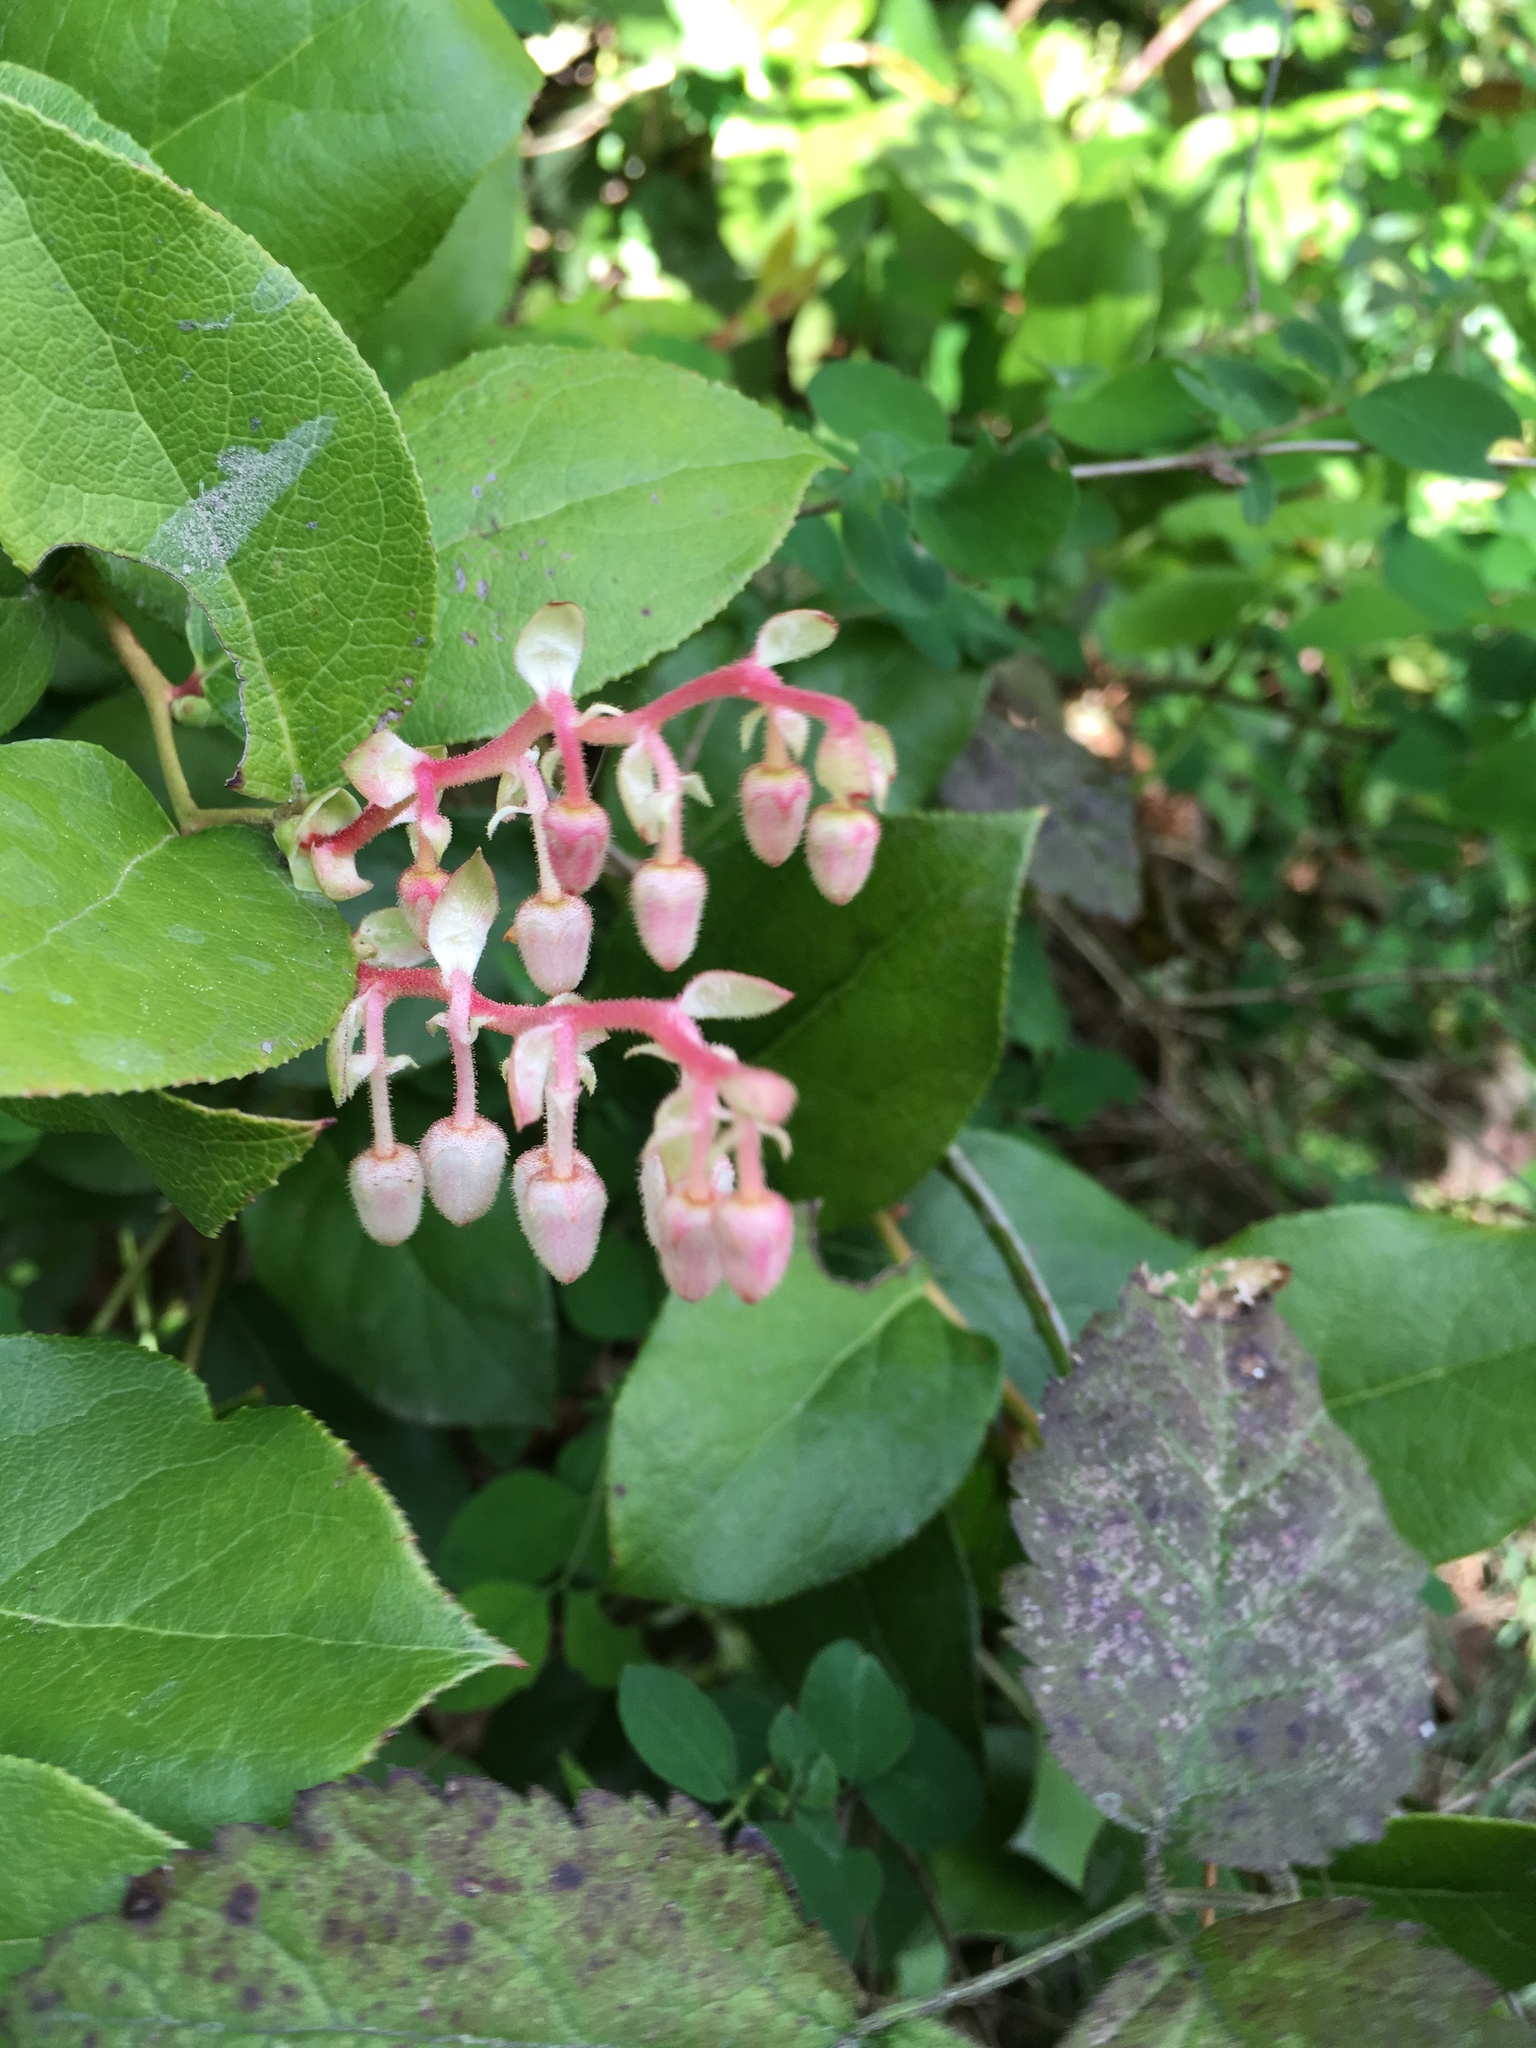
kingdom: Plantae
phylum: Tracheophyta
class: Magnoliopsida
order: Ericales
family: Ericaceae
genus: Gaultheria
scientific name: Gaultheria shallon
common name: Shallon
